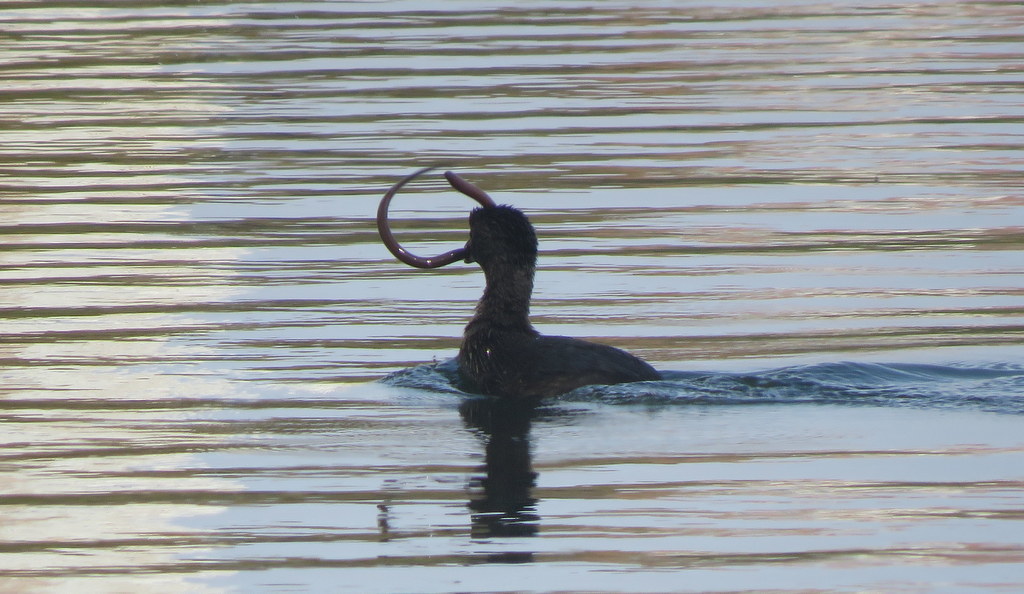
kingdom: Animalia
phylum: Chordata
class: Aves
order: Podicipediformes
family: Podicipedidae
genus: Podilymbus
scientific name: Podilymbus podiceps
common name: Pied-billed grebe
